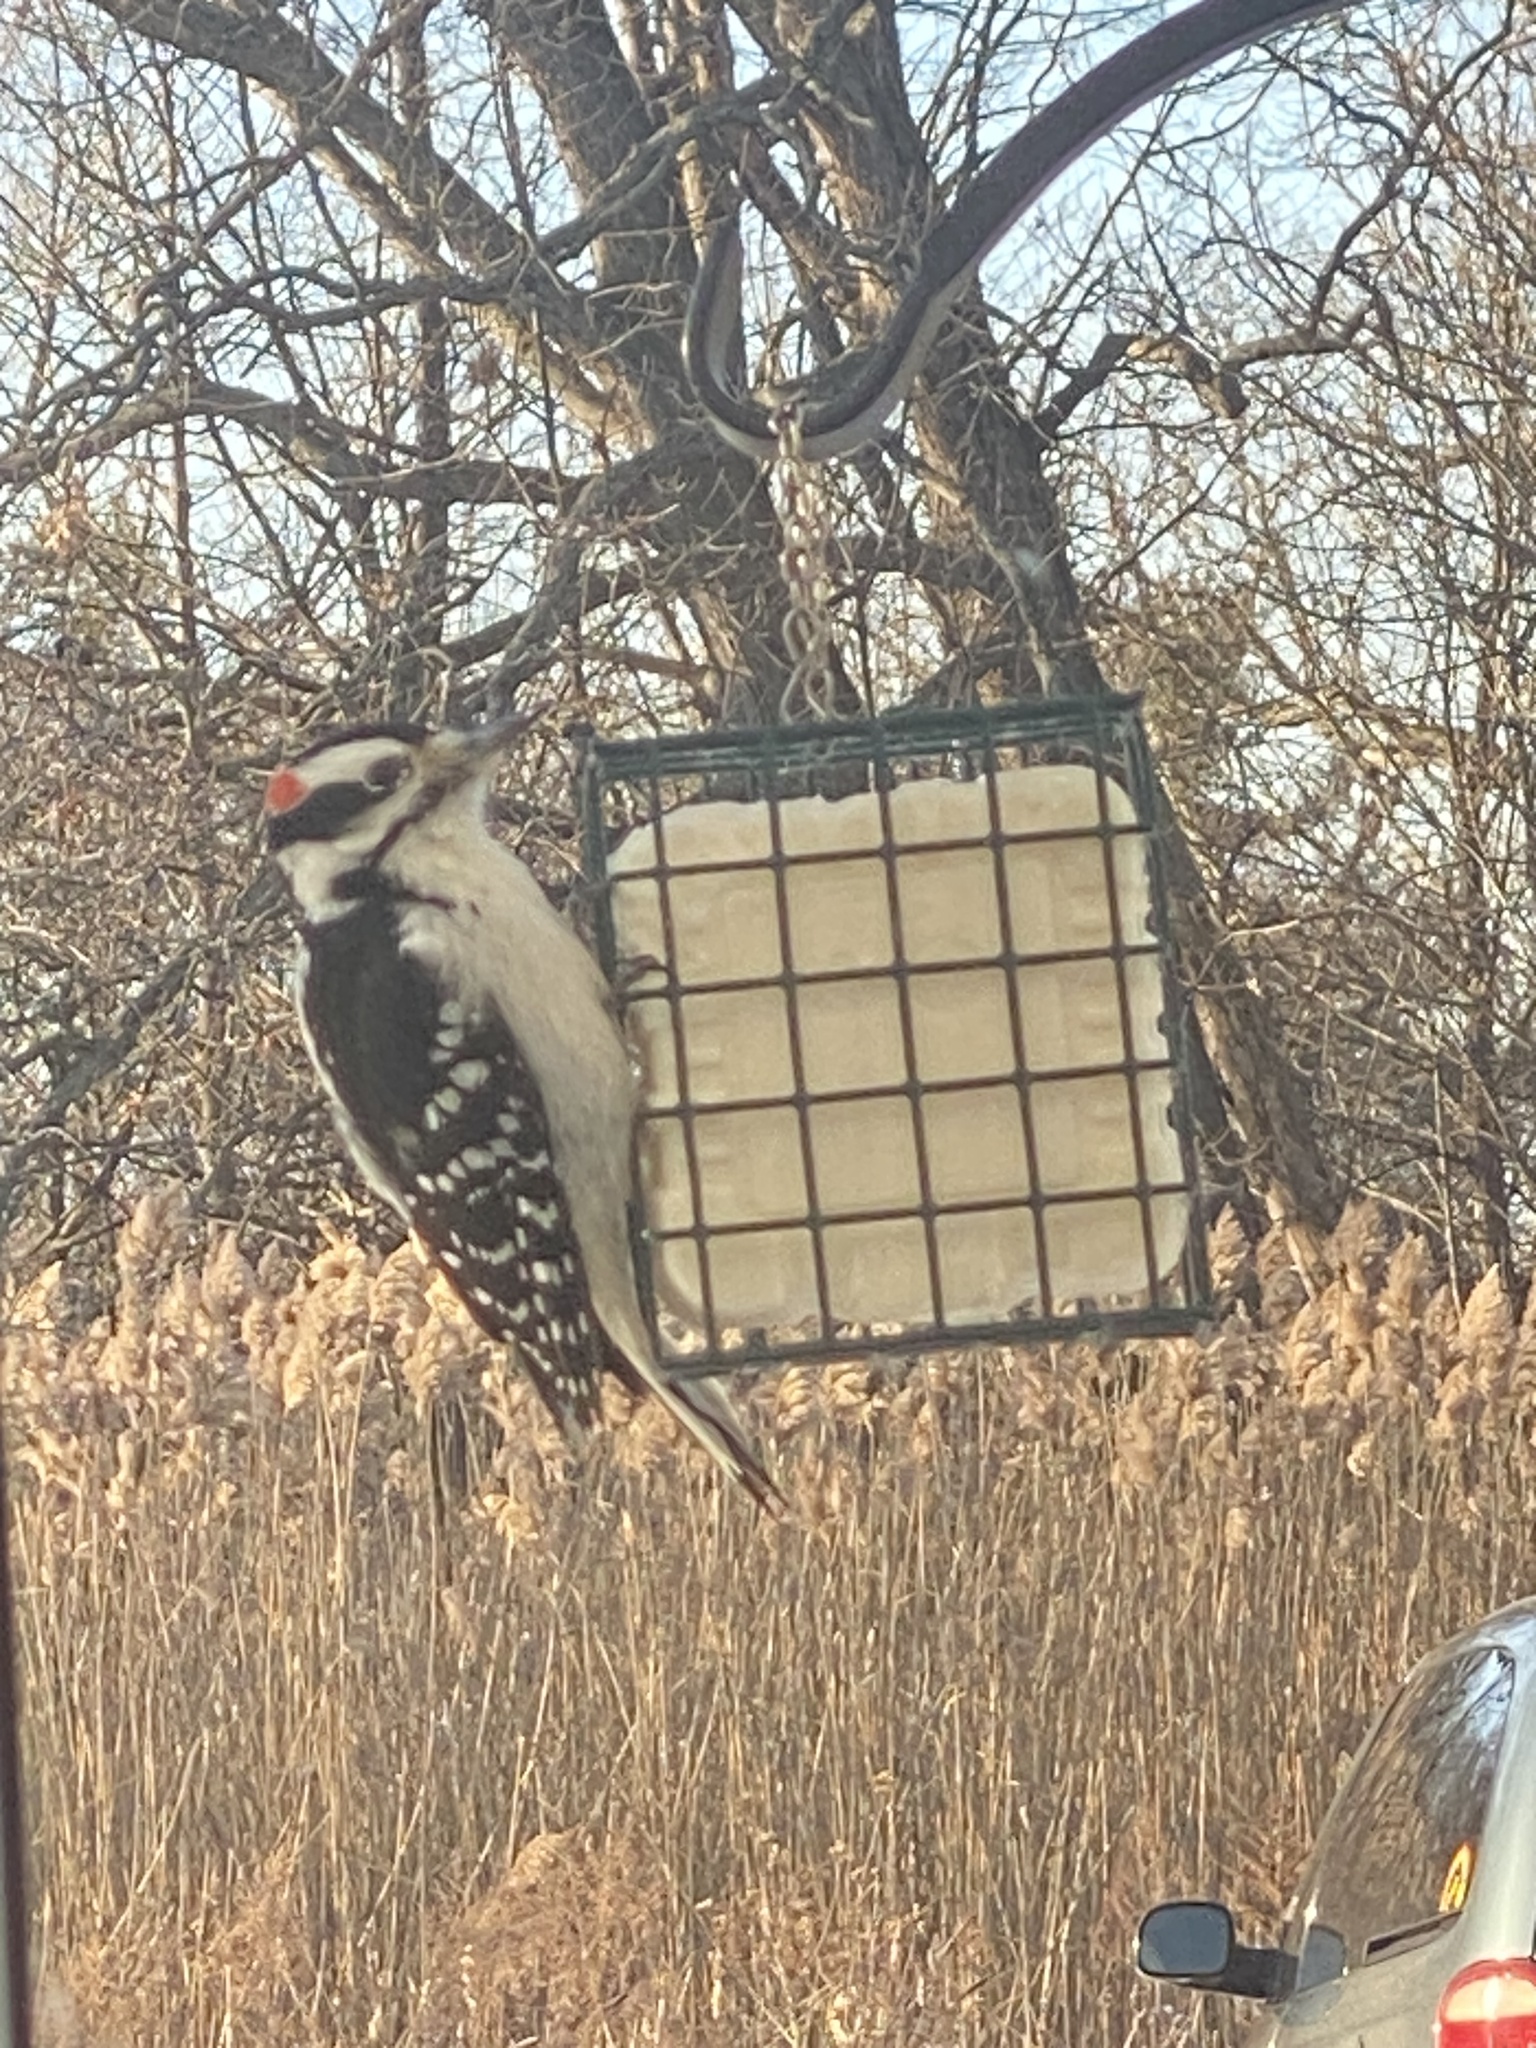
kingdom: Animalia
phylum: Chordata
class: Aves
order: Piciformes
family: Picidae
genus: Leuconotopicus
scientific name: Leuconotopicus villosus
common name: Hairy woodpecker
